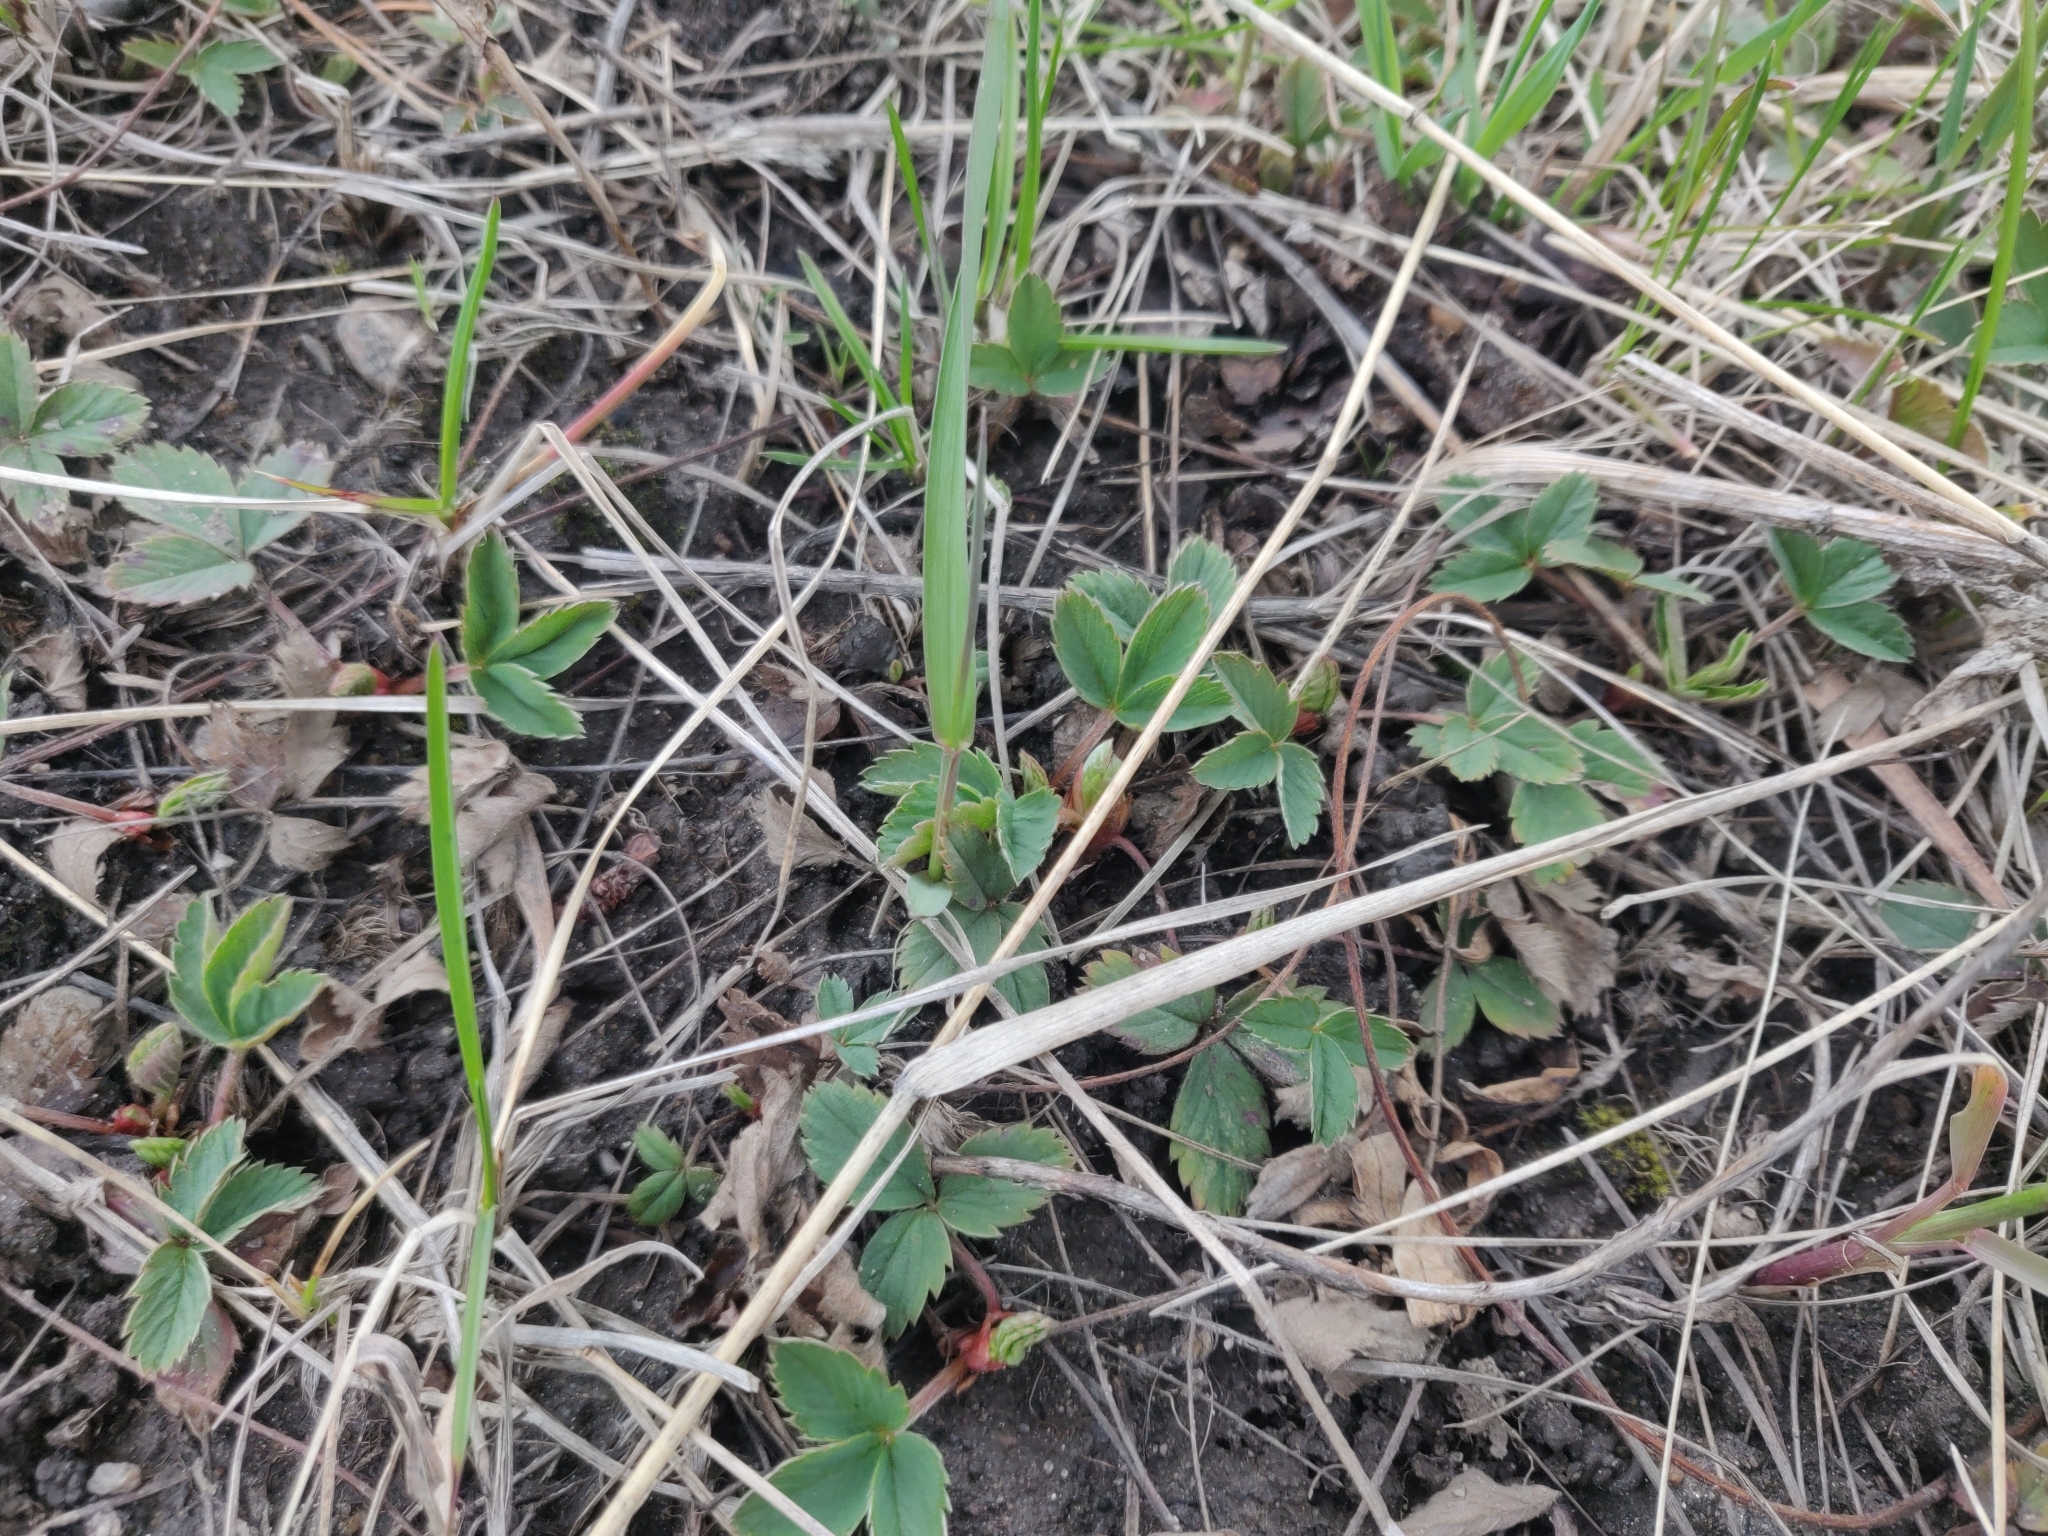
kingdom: Plantae
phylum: Tracheophyta
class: Magnoliopsida
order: Rosales
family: Rosaceae
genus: Fragaria
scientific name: Fragaria virginiana
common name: Thickleaved wild strawberry
